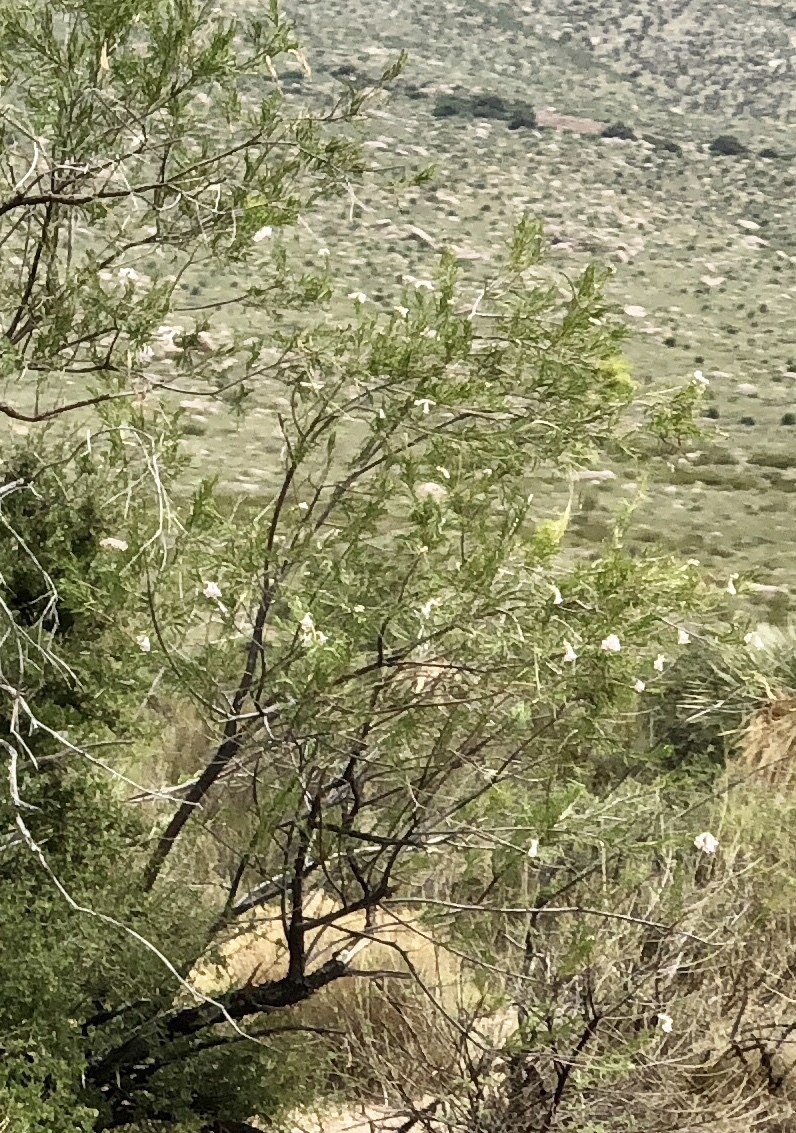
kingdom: Plantae
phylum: Tracheophyta
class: Magnoliopsida
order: Lamiales
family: Bignoniaceae
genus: Chilopsis
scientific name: Chilopsis linearis
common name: Desert-willow
